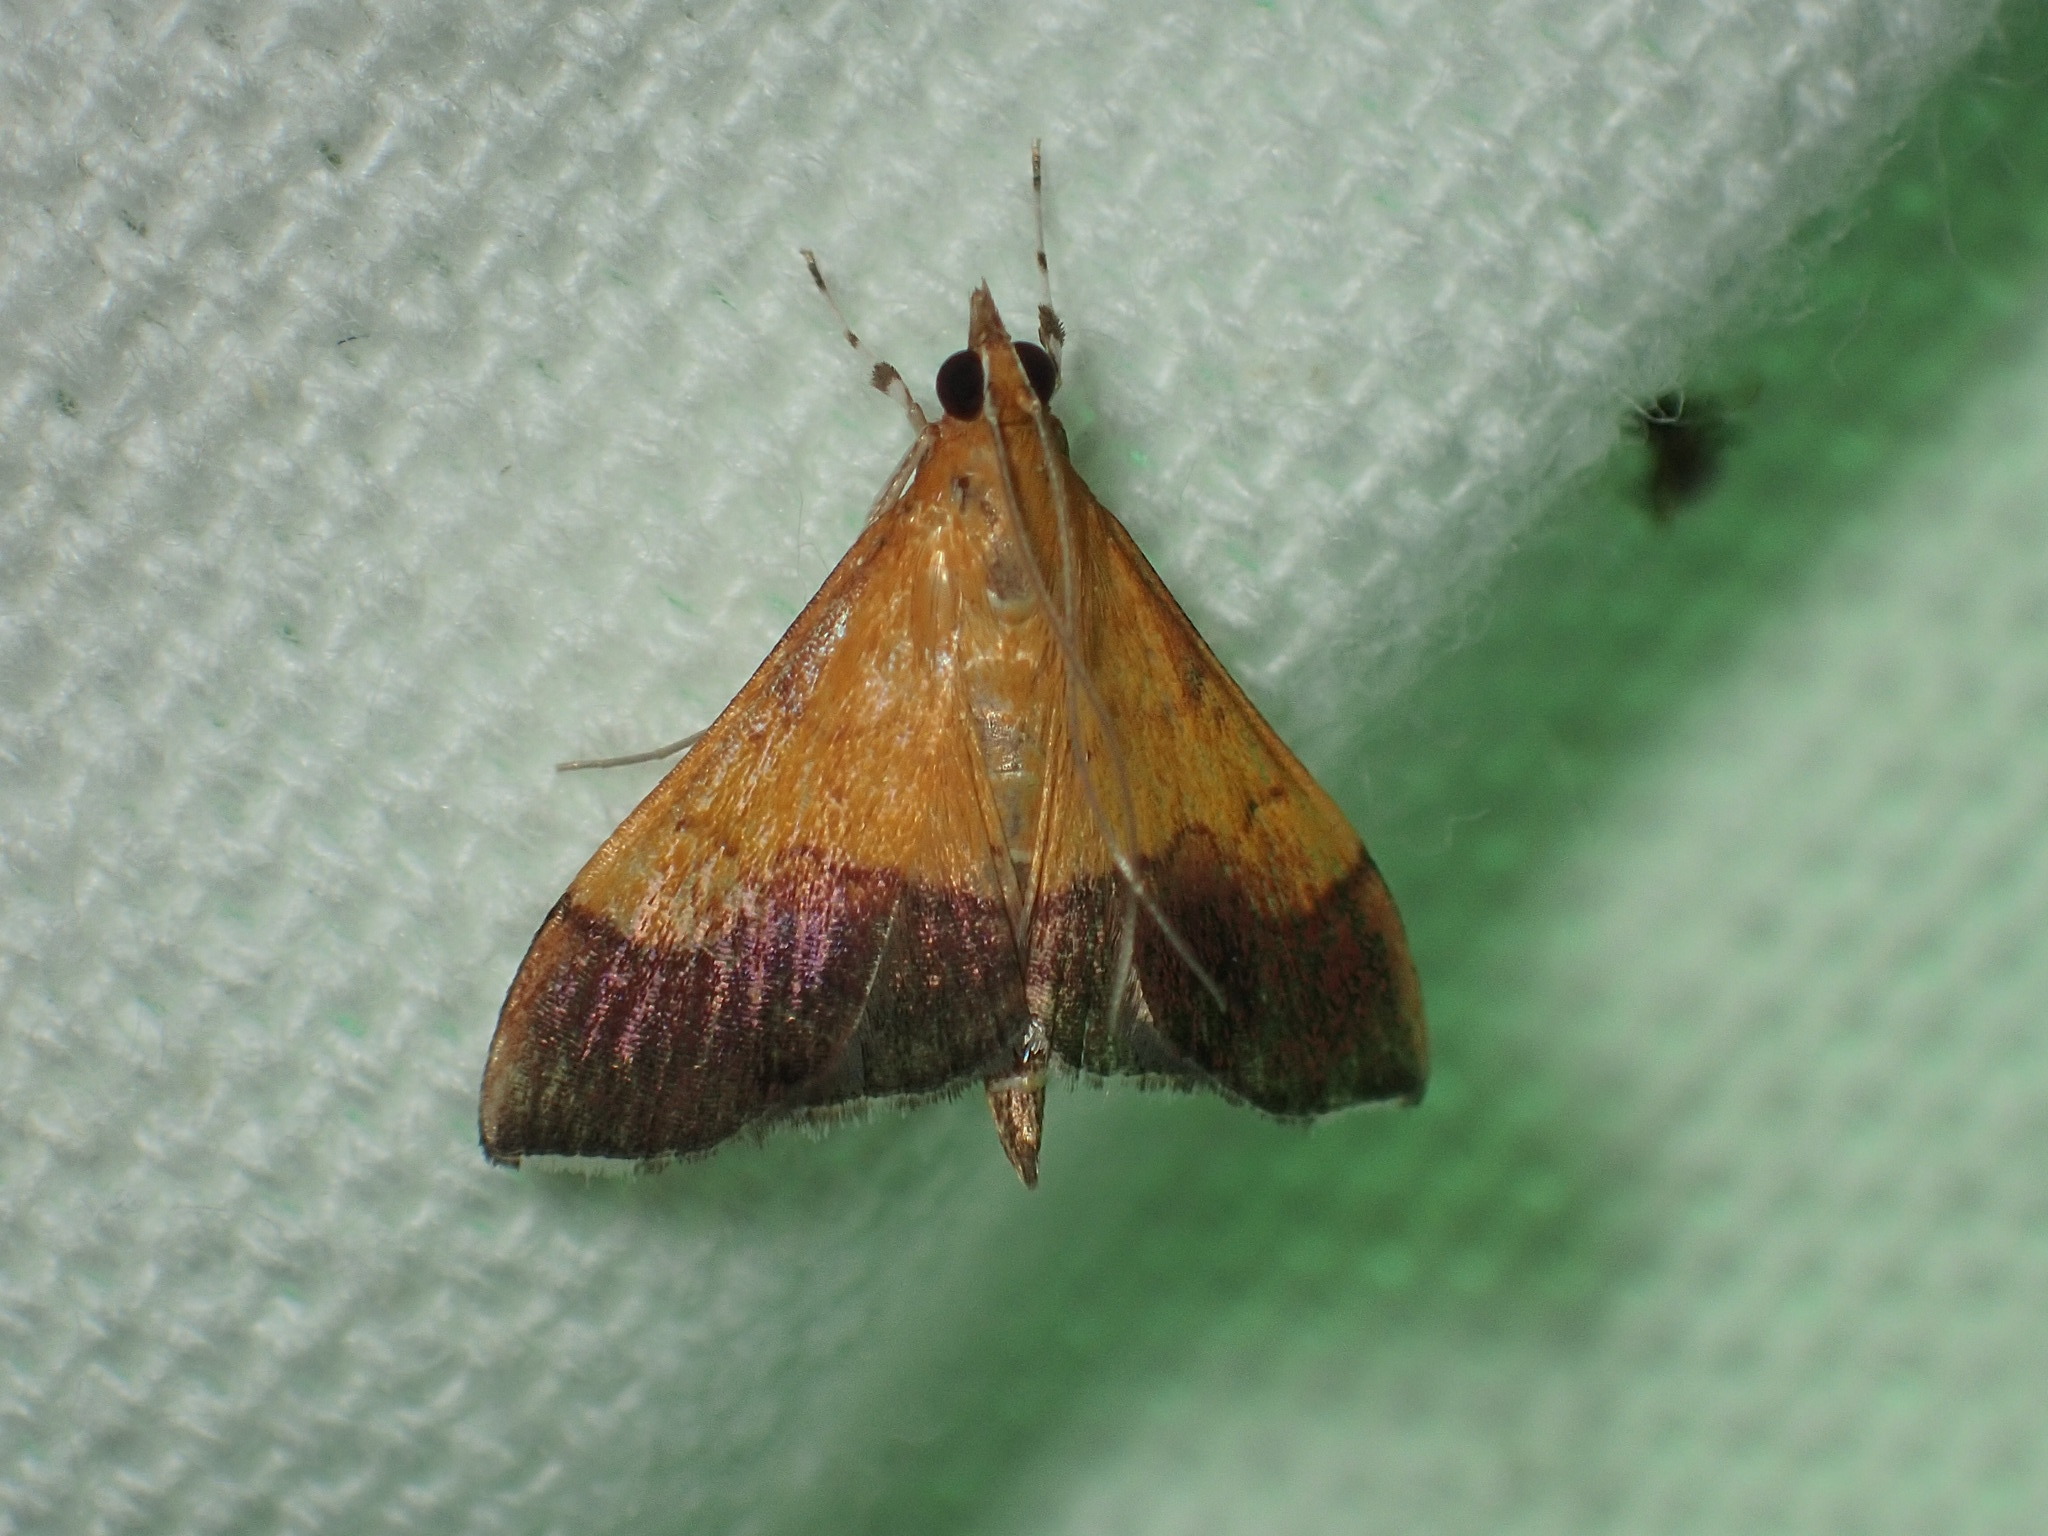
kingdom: Animalia
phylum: Arthropoda
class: Insecta
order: Lepidoptera
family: Crambidae
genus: Pyrausta
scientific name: Pyrausta bicoloralis
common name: Bicolored pyrausta moth
